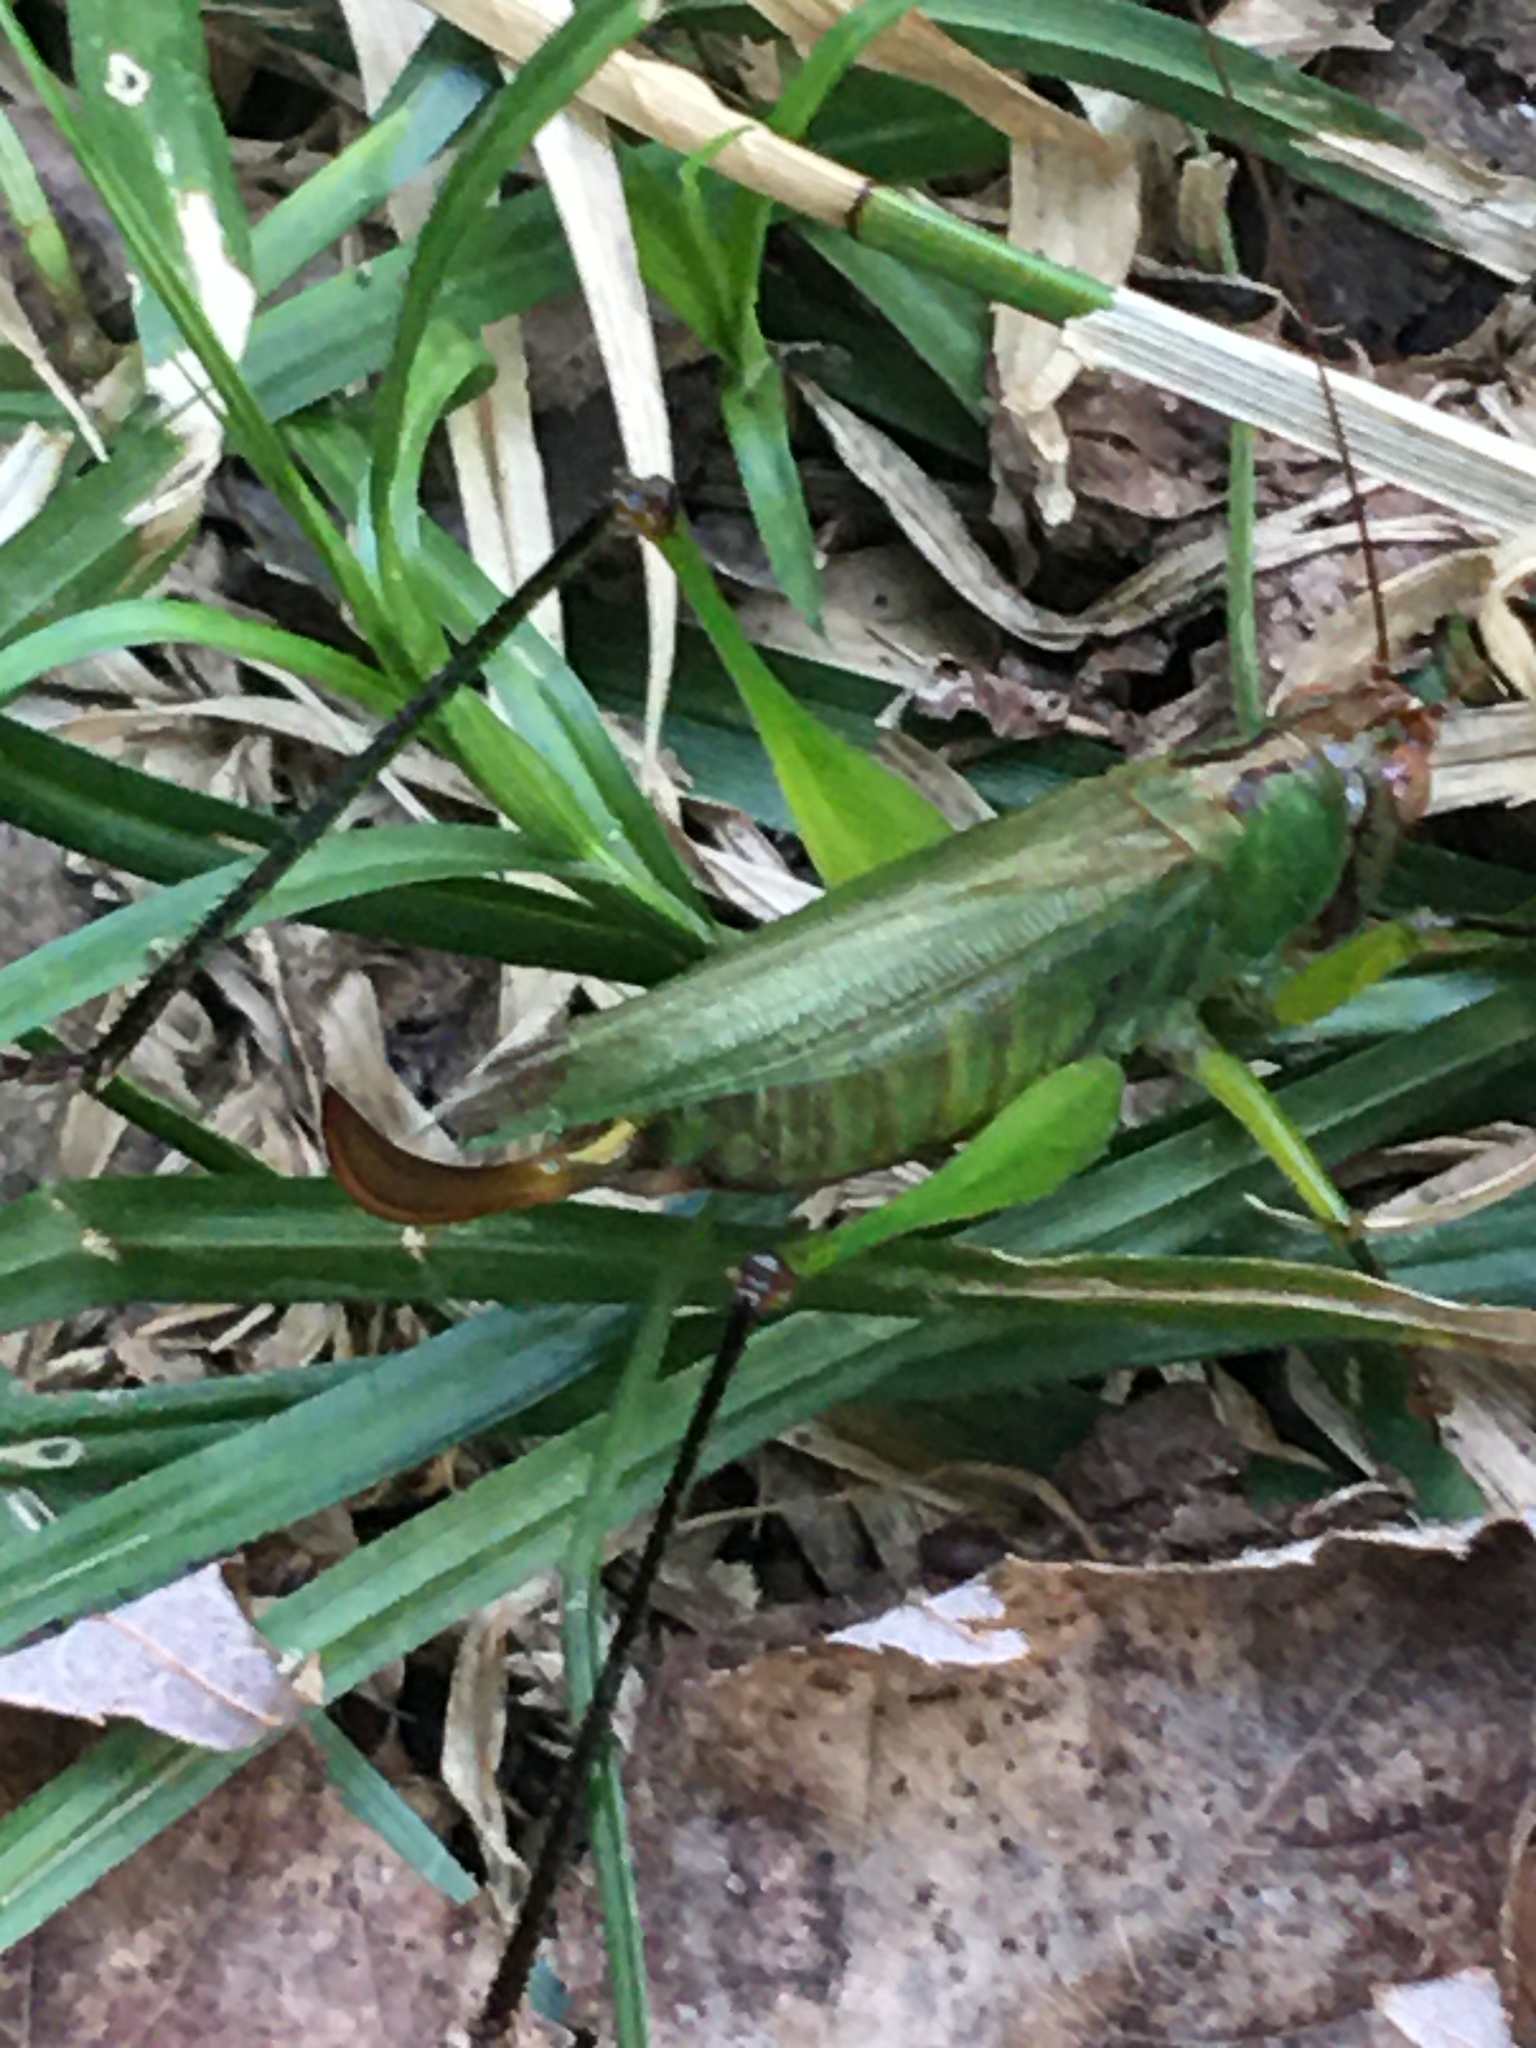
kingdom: Animalia
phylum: Arthropoda
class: Insecta
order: Orthoptera
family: Tettigoniidae
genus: Orchelimum
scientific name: Orchelimum nigripes
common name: Black-legged meadow katydid
